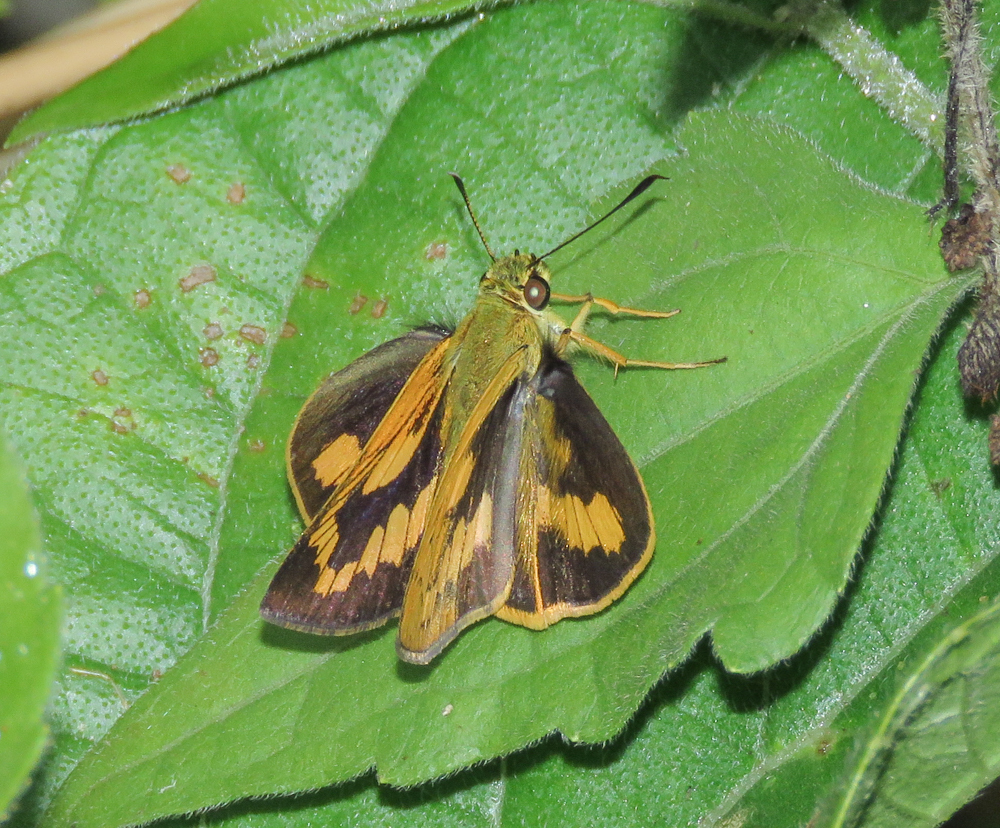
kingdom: Animalia
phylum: Arthropoda
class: Insecta
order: Lepidoptera
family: Hesperiidae
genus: Telicota
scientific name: Telicota bambusae
